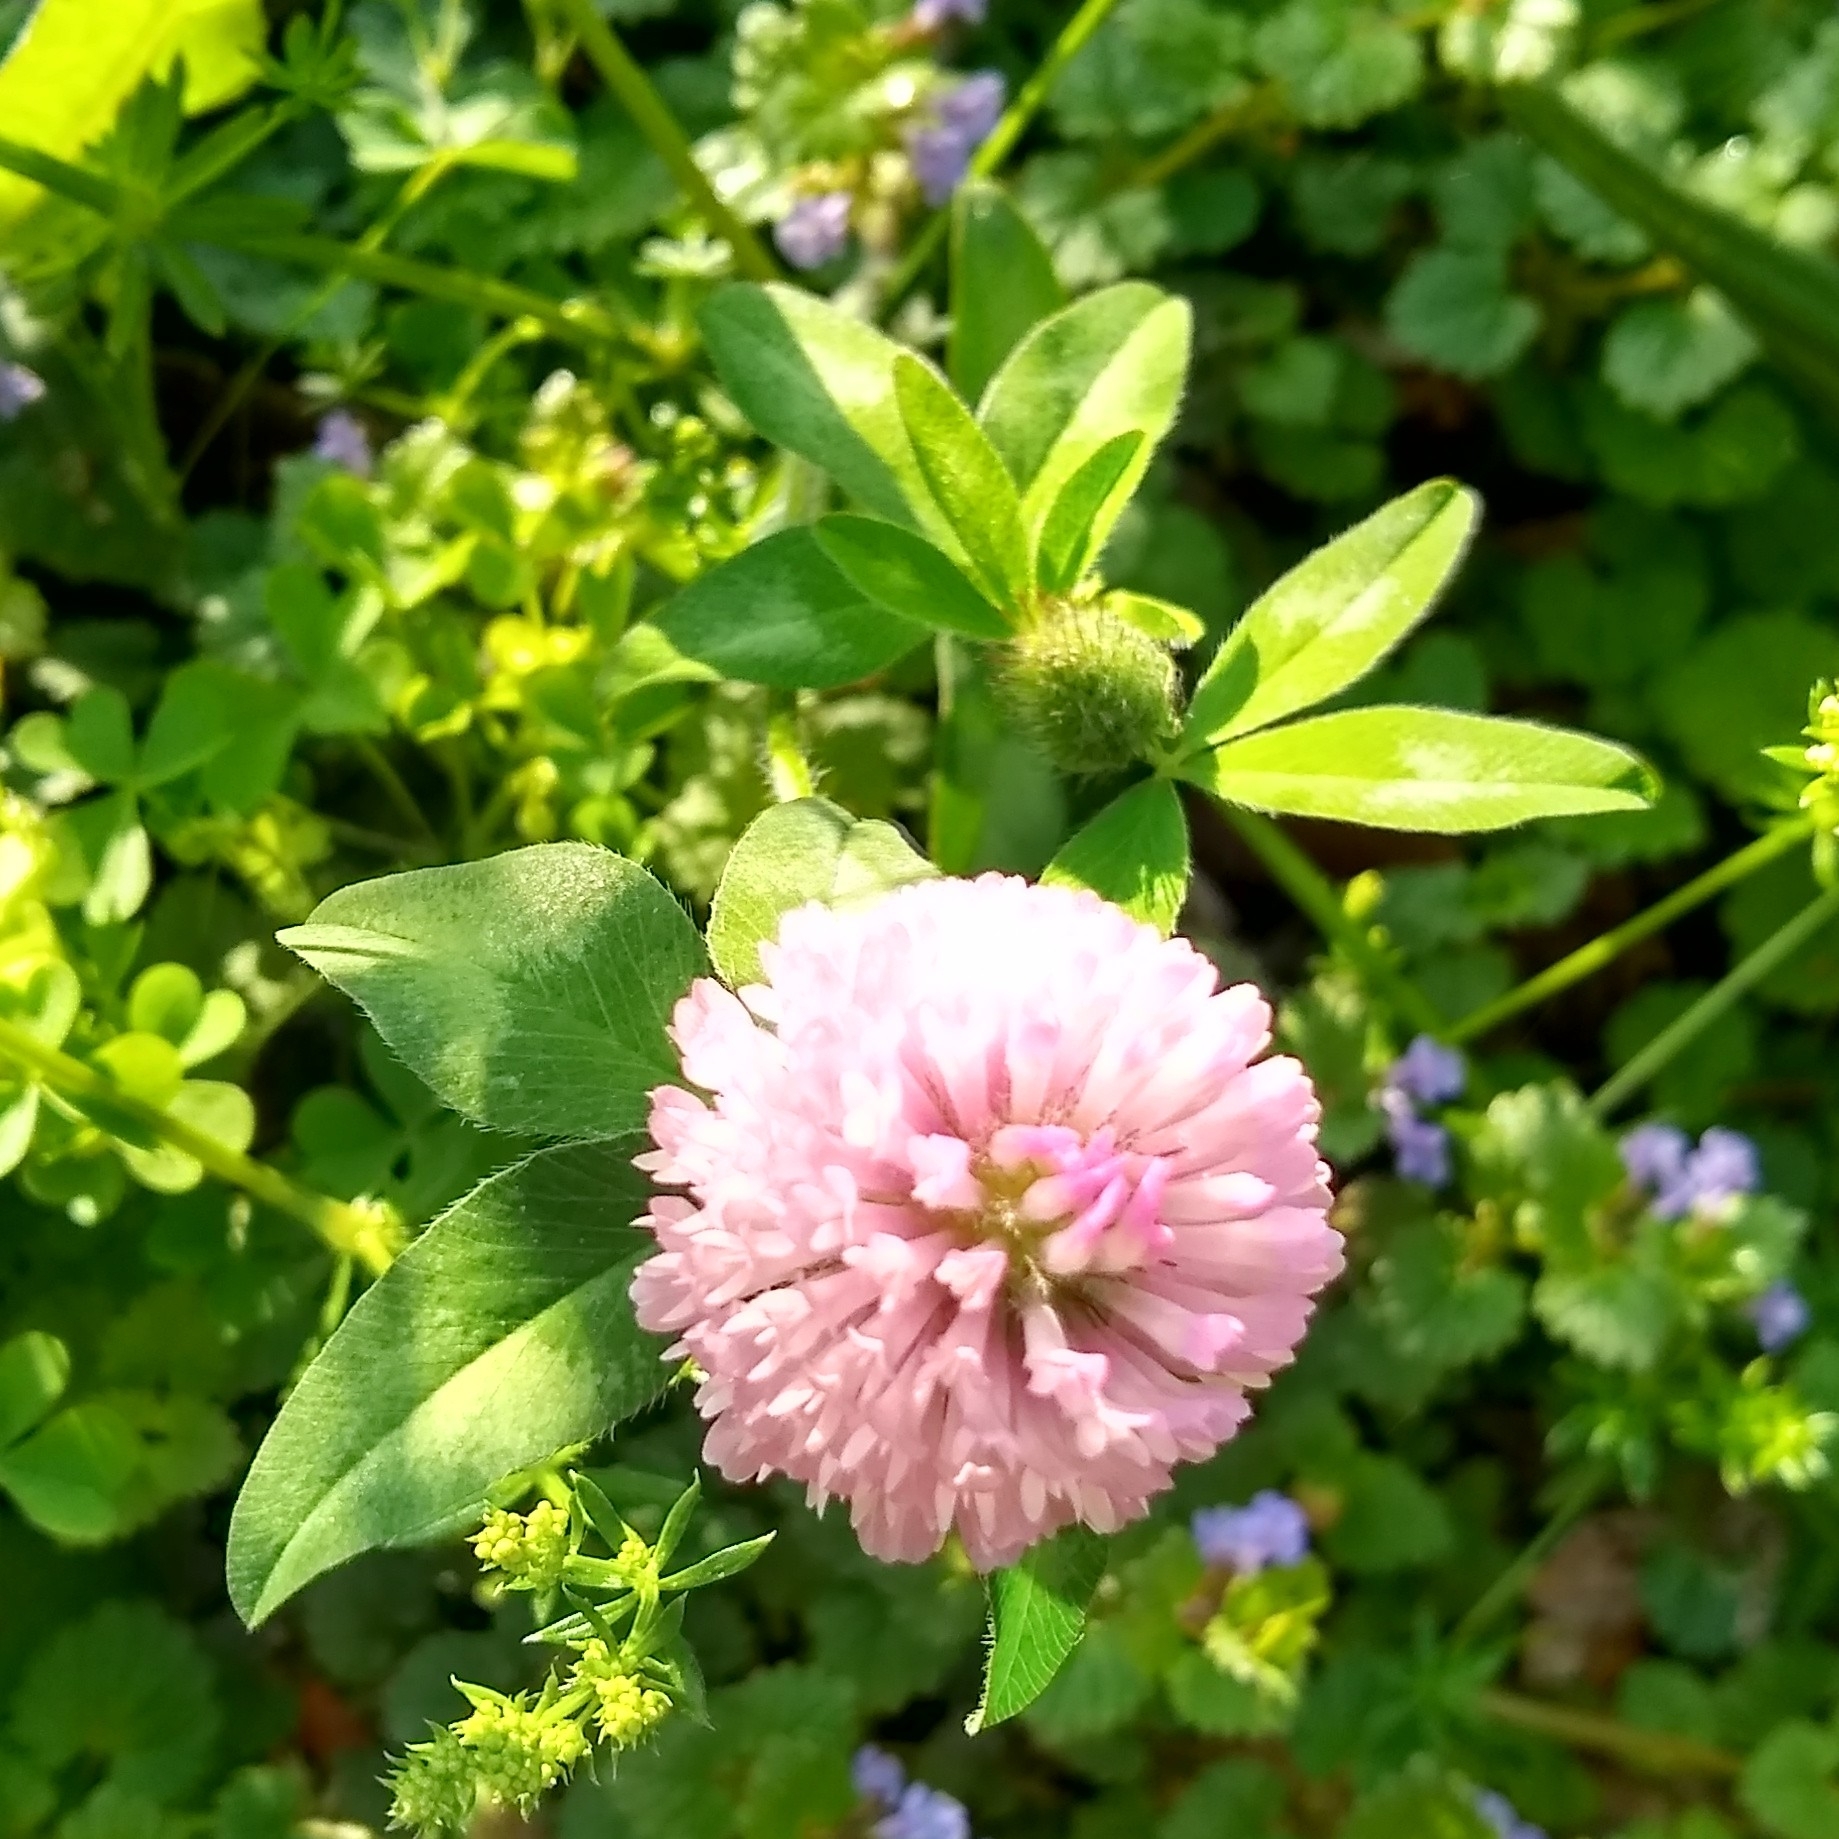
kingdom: Plantae
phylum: Tracheophyta
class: Magnoliopsida
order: Fabales
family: Fabaceae
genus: Trifolium
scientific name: Trifolium pratense
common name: Red clover
